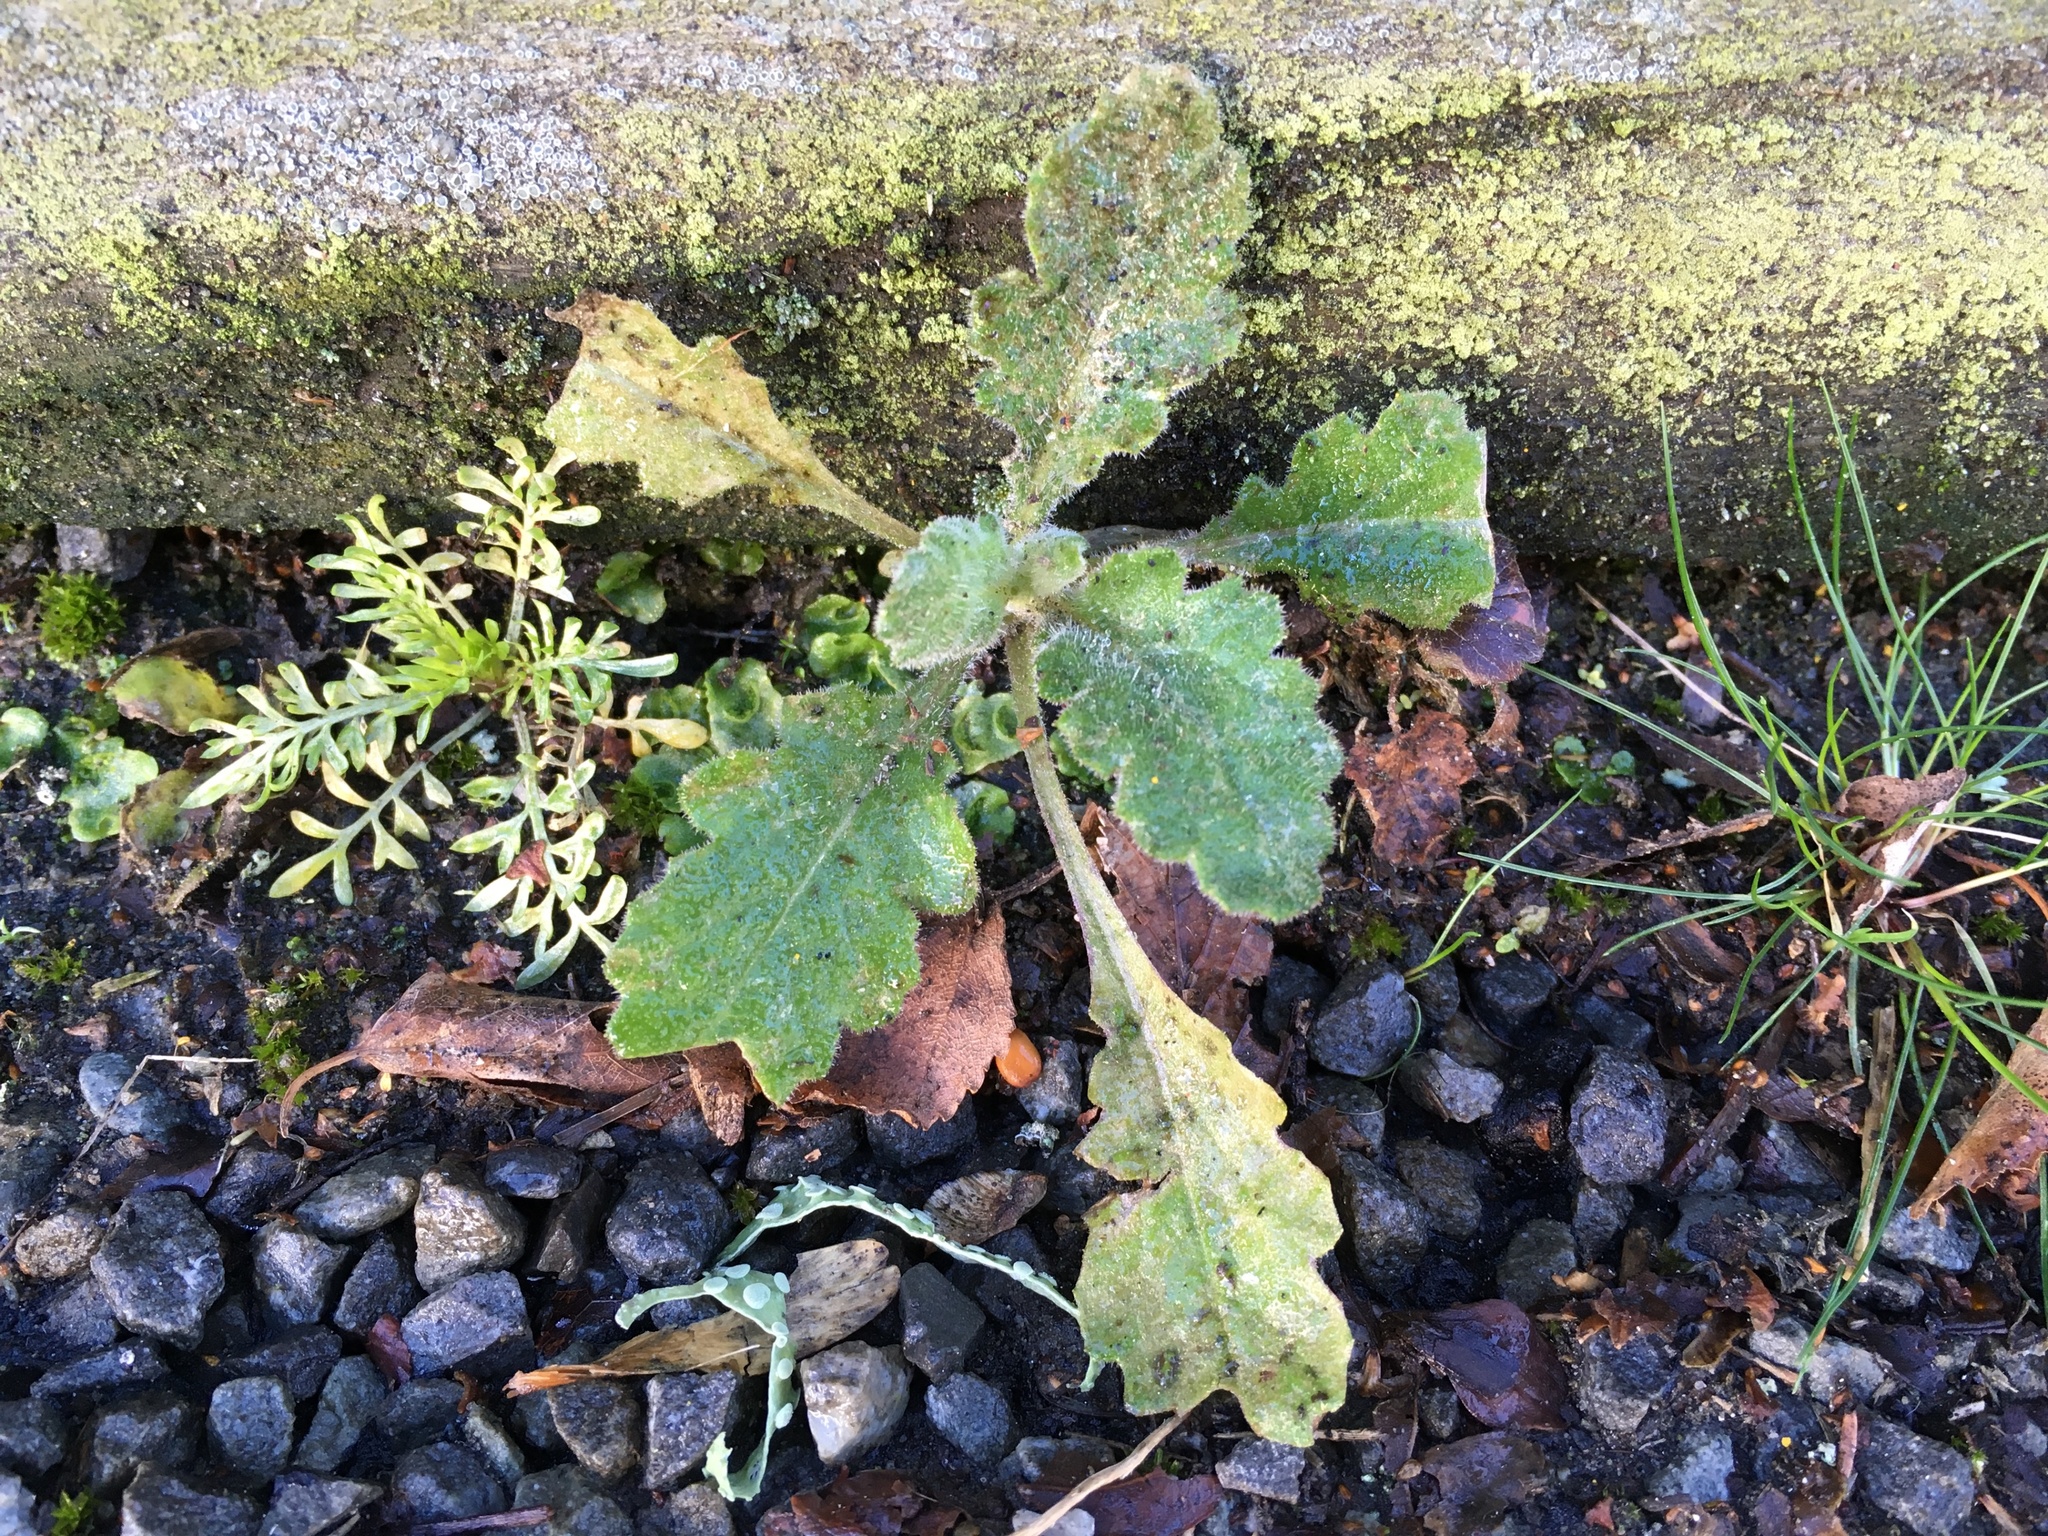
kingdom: Plantae
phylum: Tracheophyta
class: Magnoliopsida
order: Asterales
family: Asteraceae
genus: Senecio
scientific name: Senecio glomeratus
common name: Cutleaf burnweed
